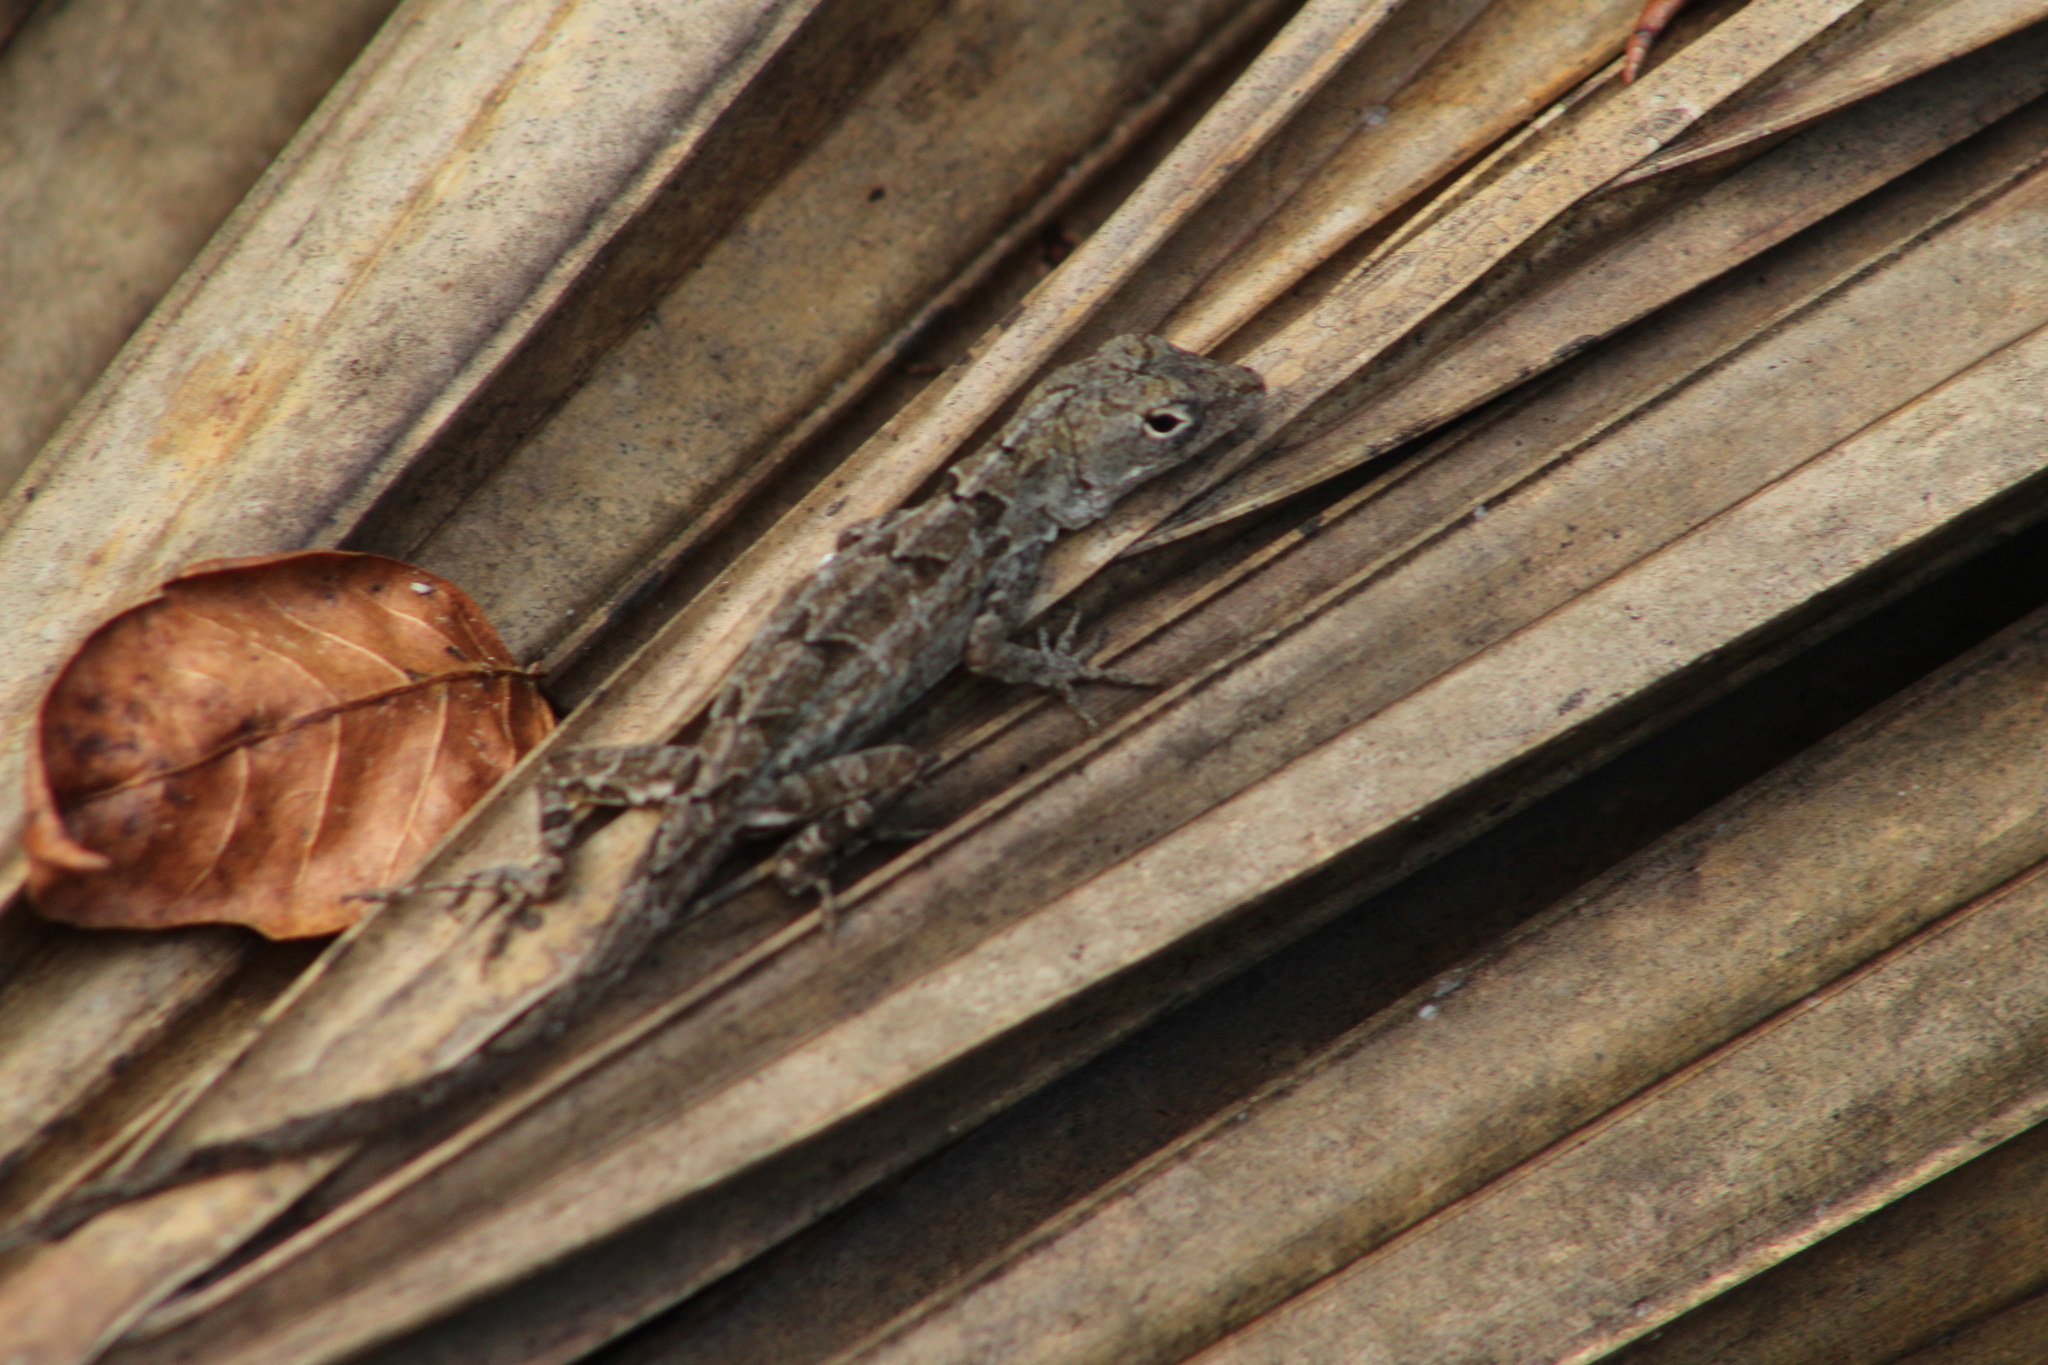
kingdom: Animalia
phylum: Chordata
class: Squamata
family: Dactyloidae
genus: Anolis
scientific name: Anolis sagrei
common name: Brown anole
